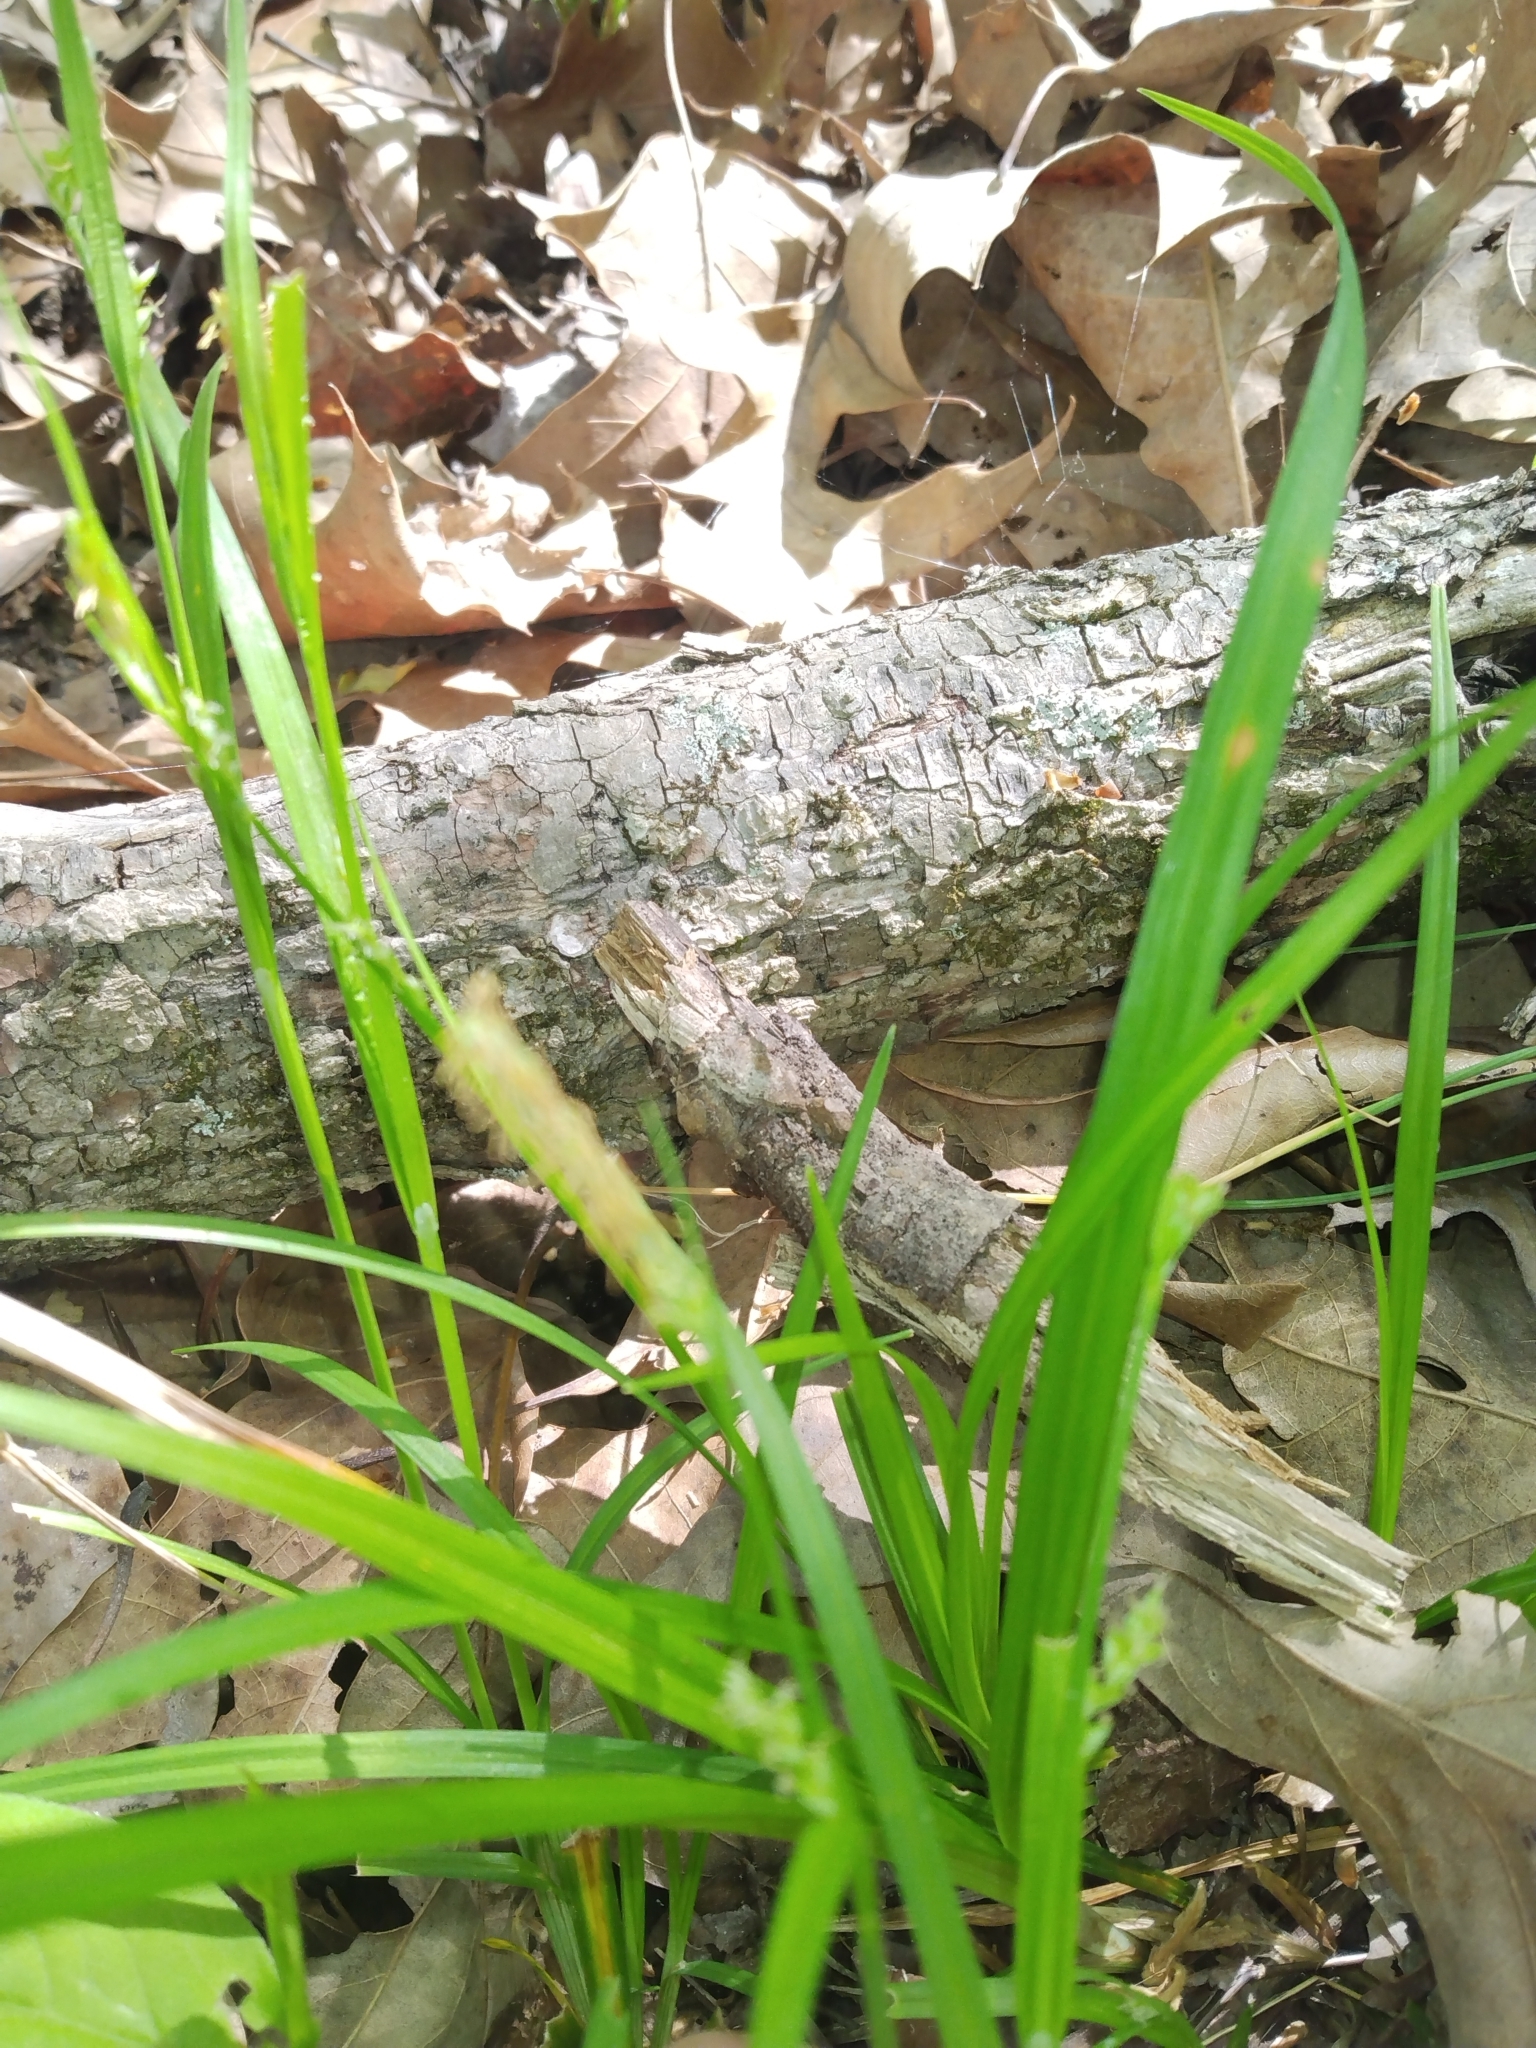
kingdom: Plantae
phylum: Tracheophyta
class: Liliopsida
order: Poales
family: Cyperaceae
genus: Carex
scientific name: Carex oxylepis
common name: Sharpscale sedge
